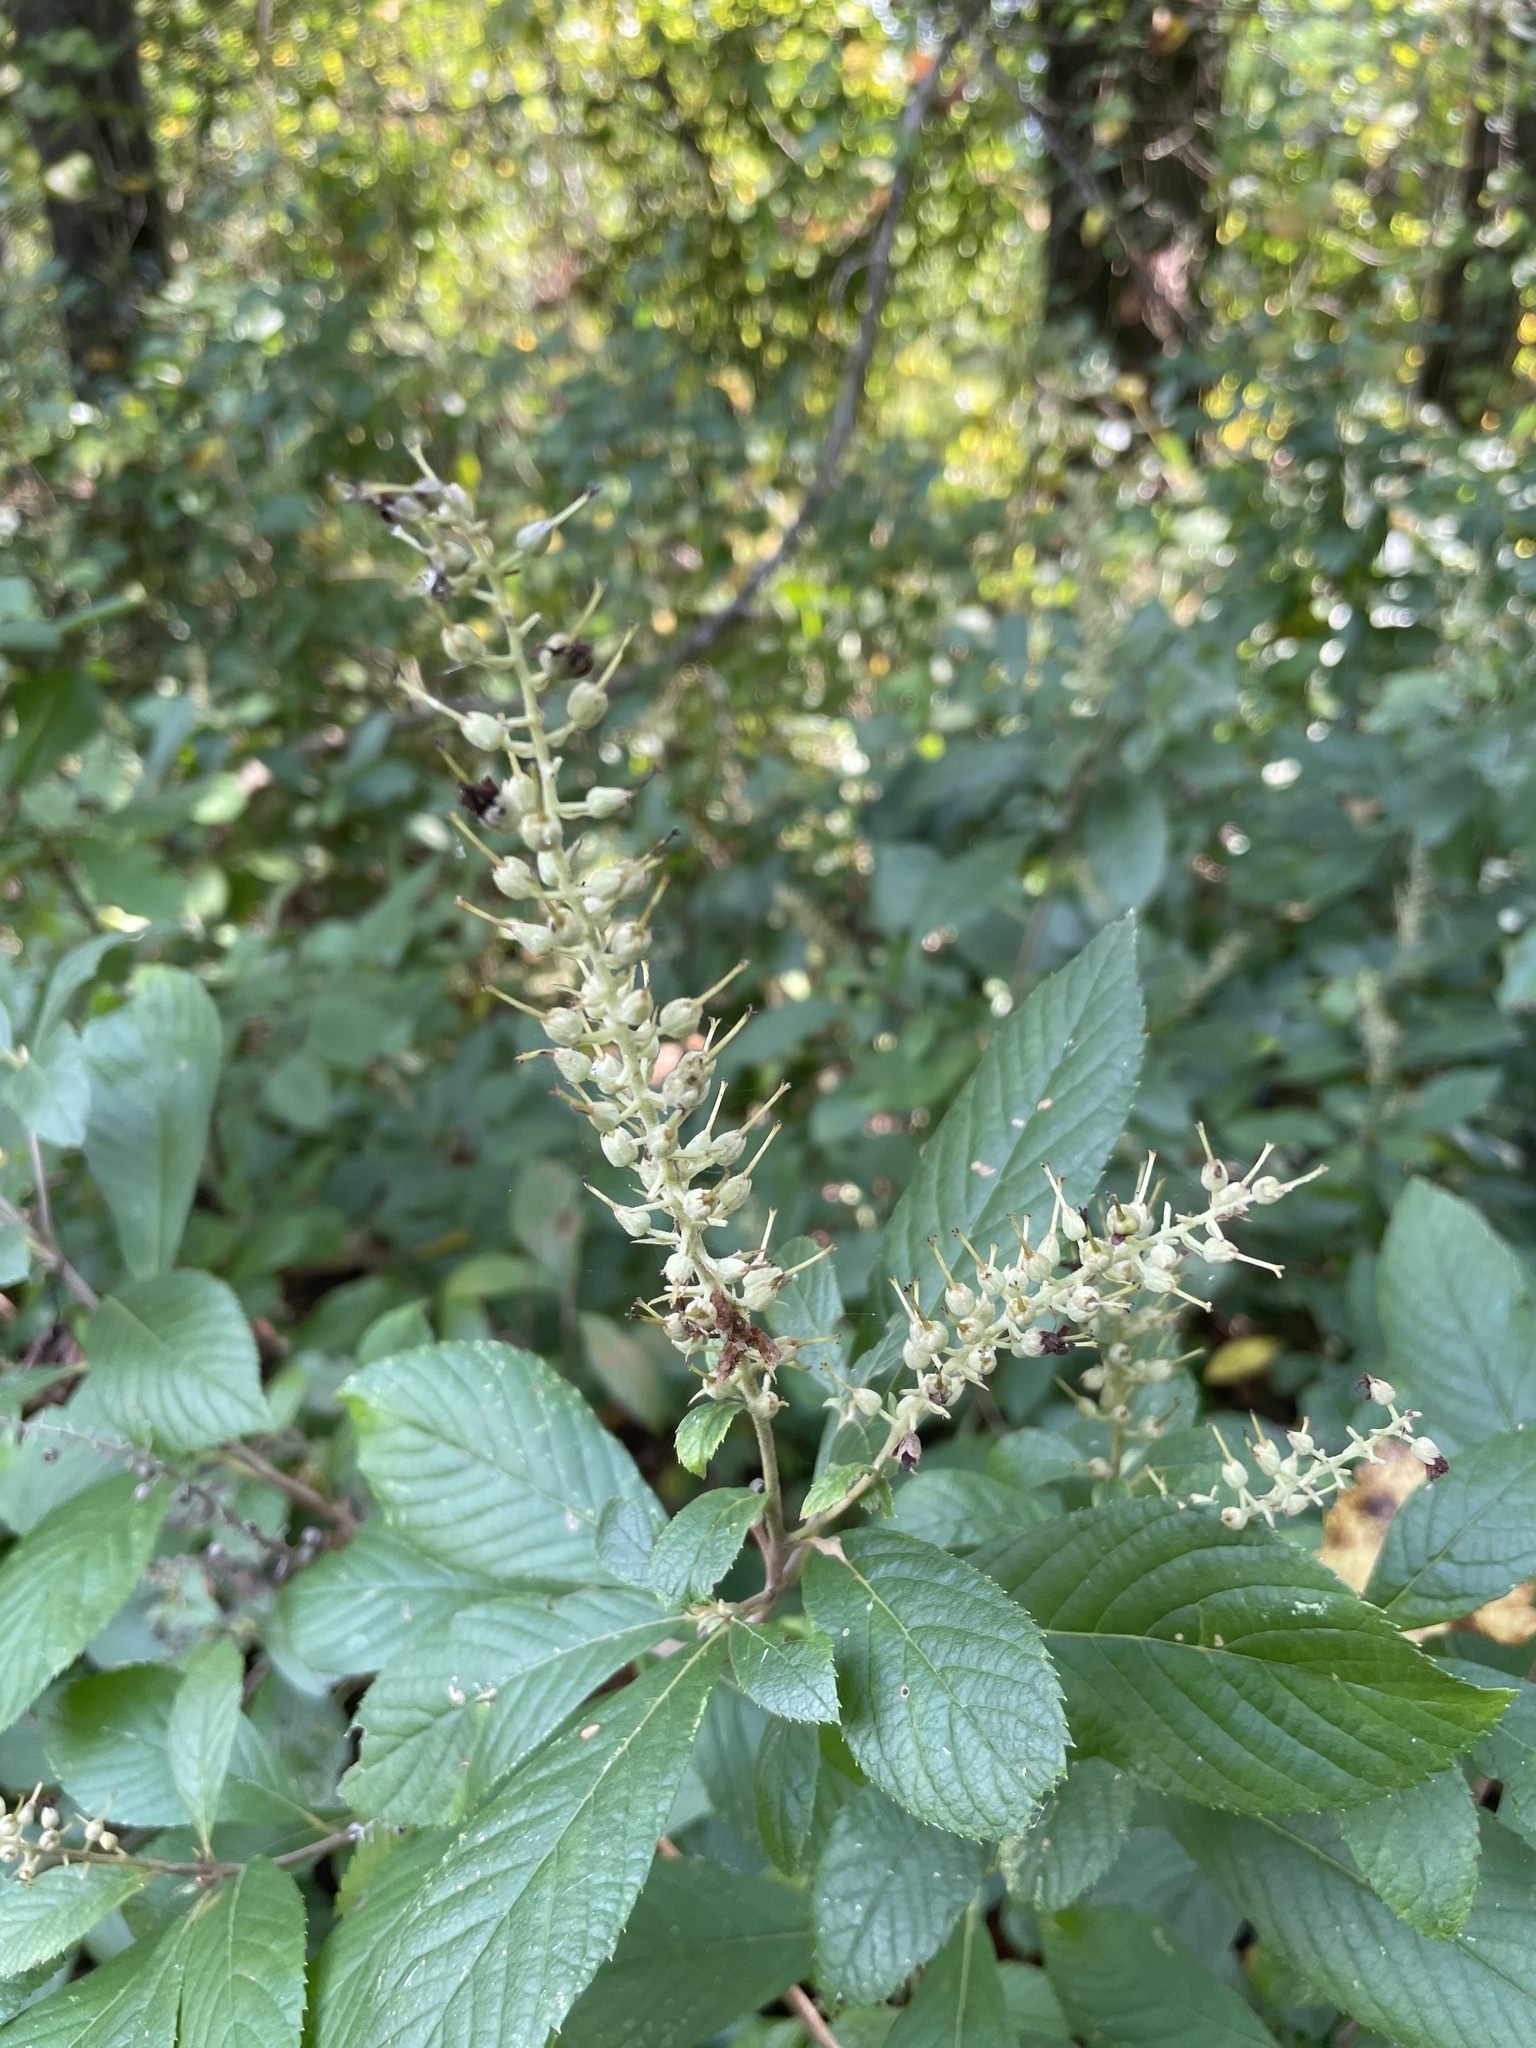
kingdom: Plantae
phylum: Tracheophyta
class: Magnoliopsida
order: Ericales
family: Clethraceae
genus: Clethra
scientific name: Clethra alnifolia
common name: Sweet pepperbush
